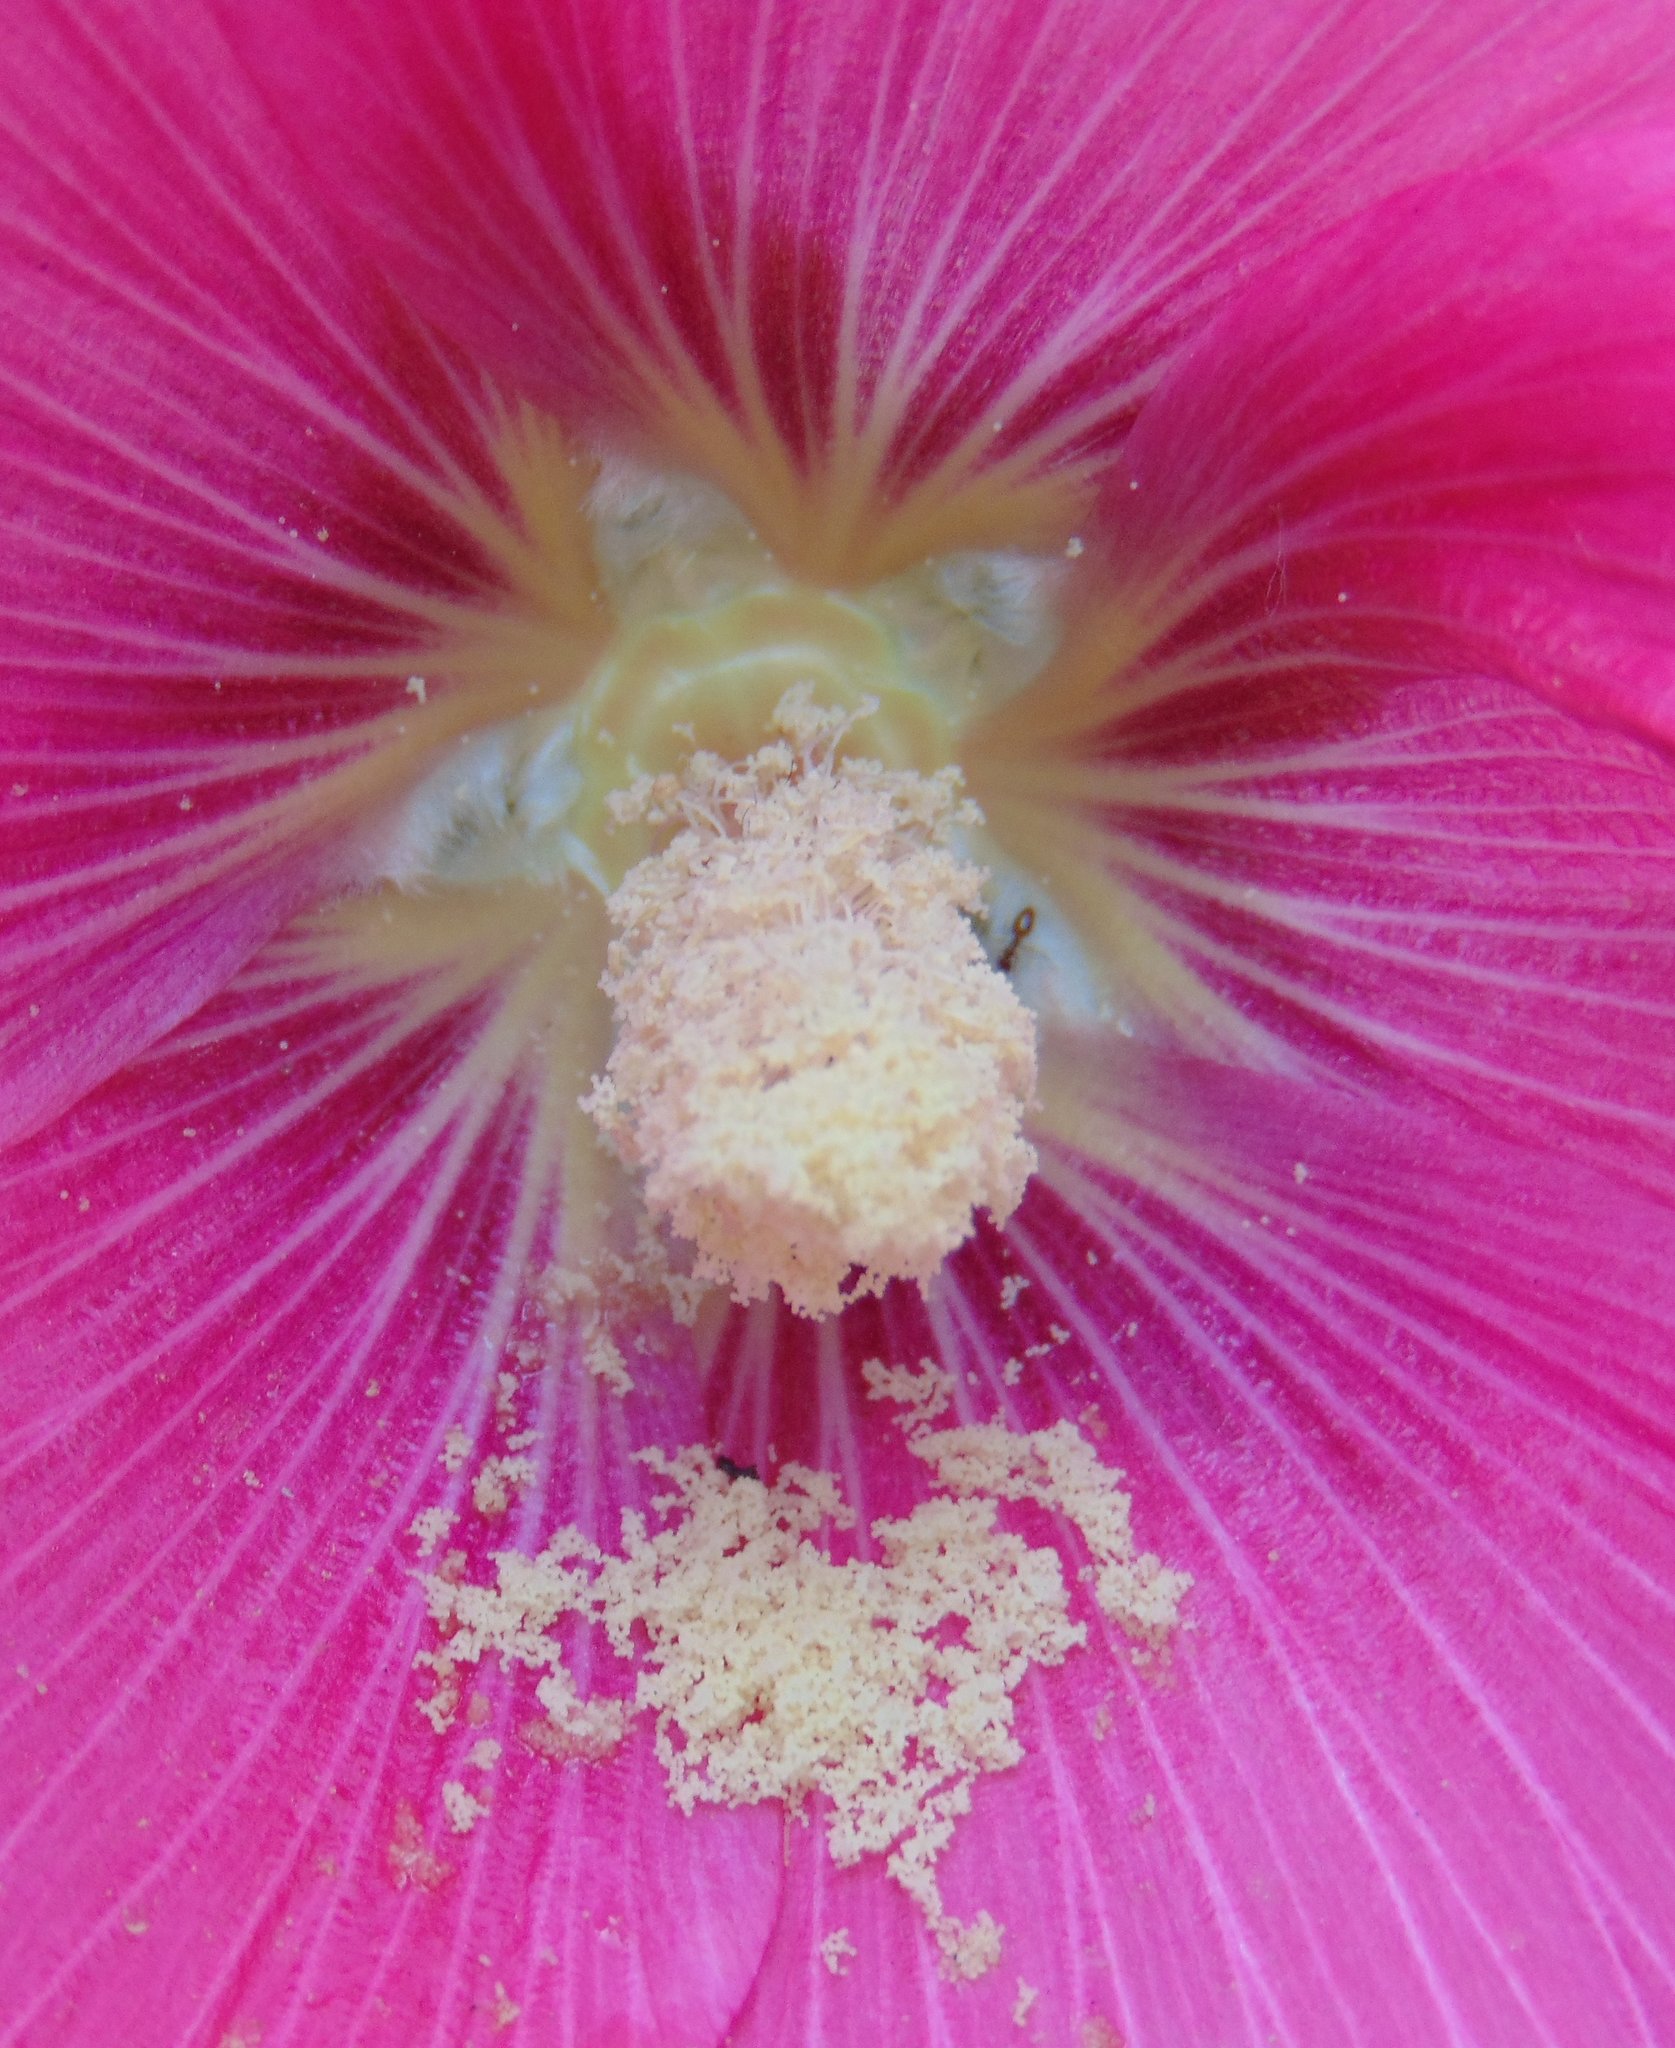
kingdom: Plantae
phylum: Tracheophyta
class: Magnoliopsida
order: Malvales
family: Malvaceae
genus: Alcea
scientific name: Alcea rosea
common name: Hollyhock
